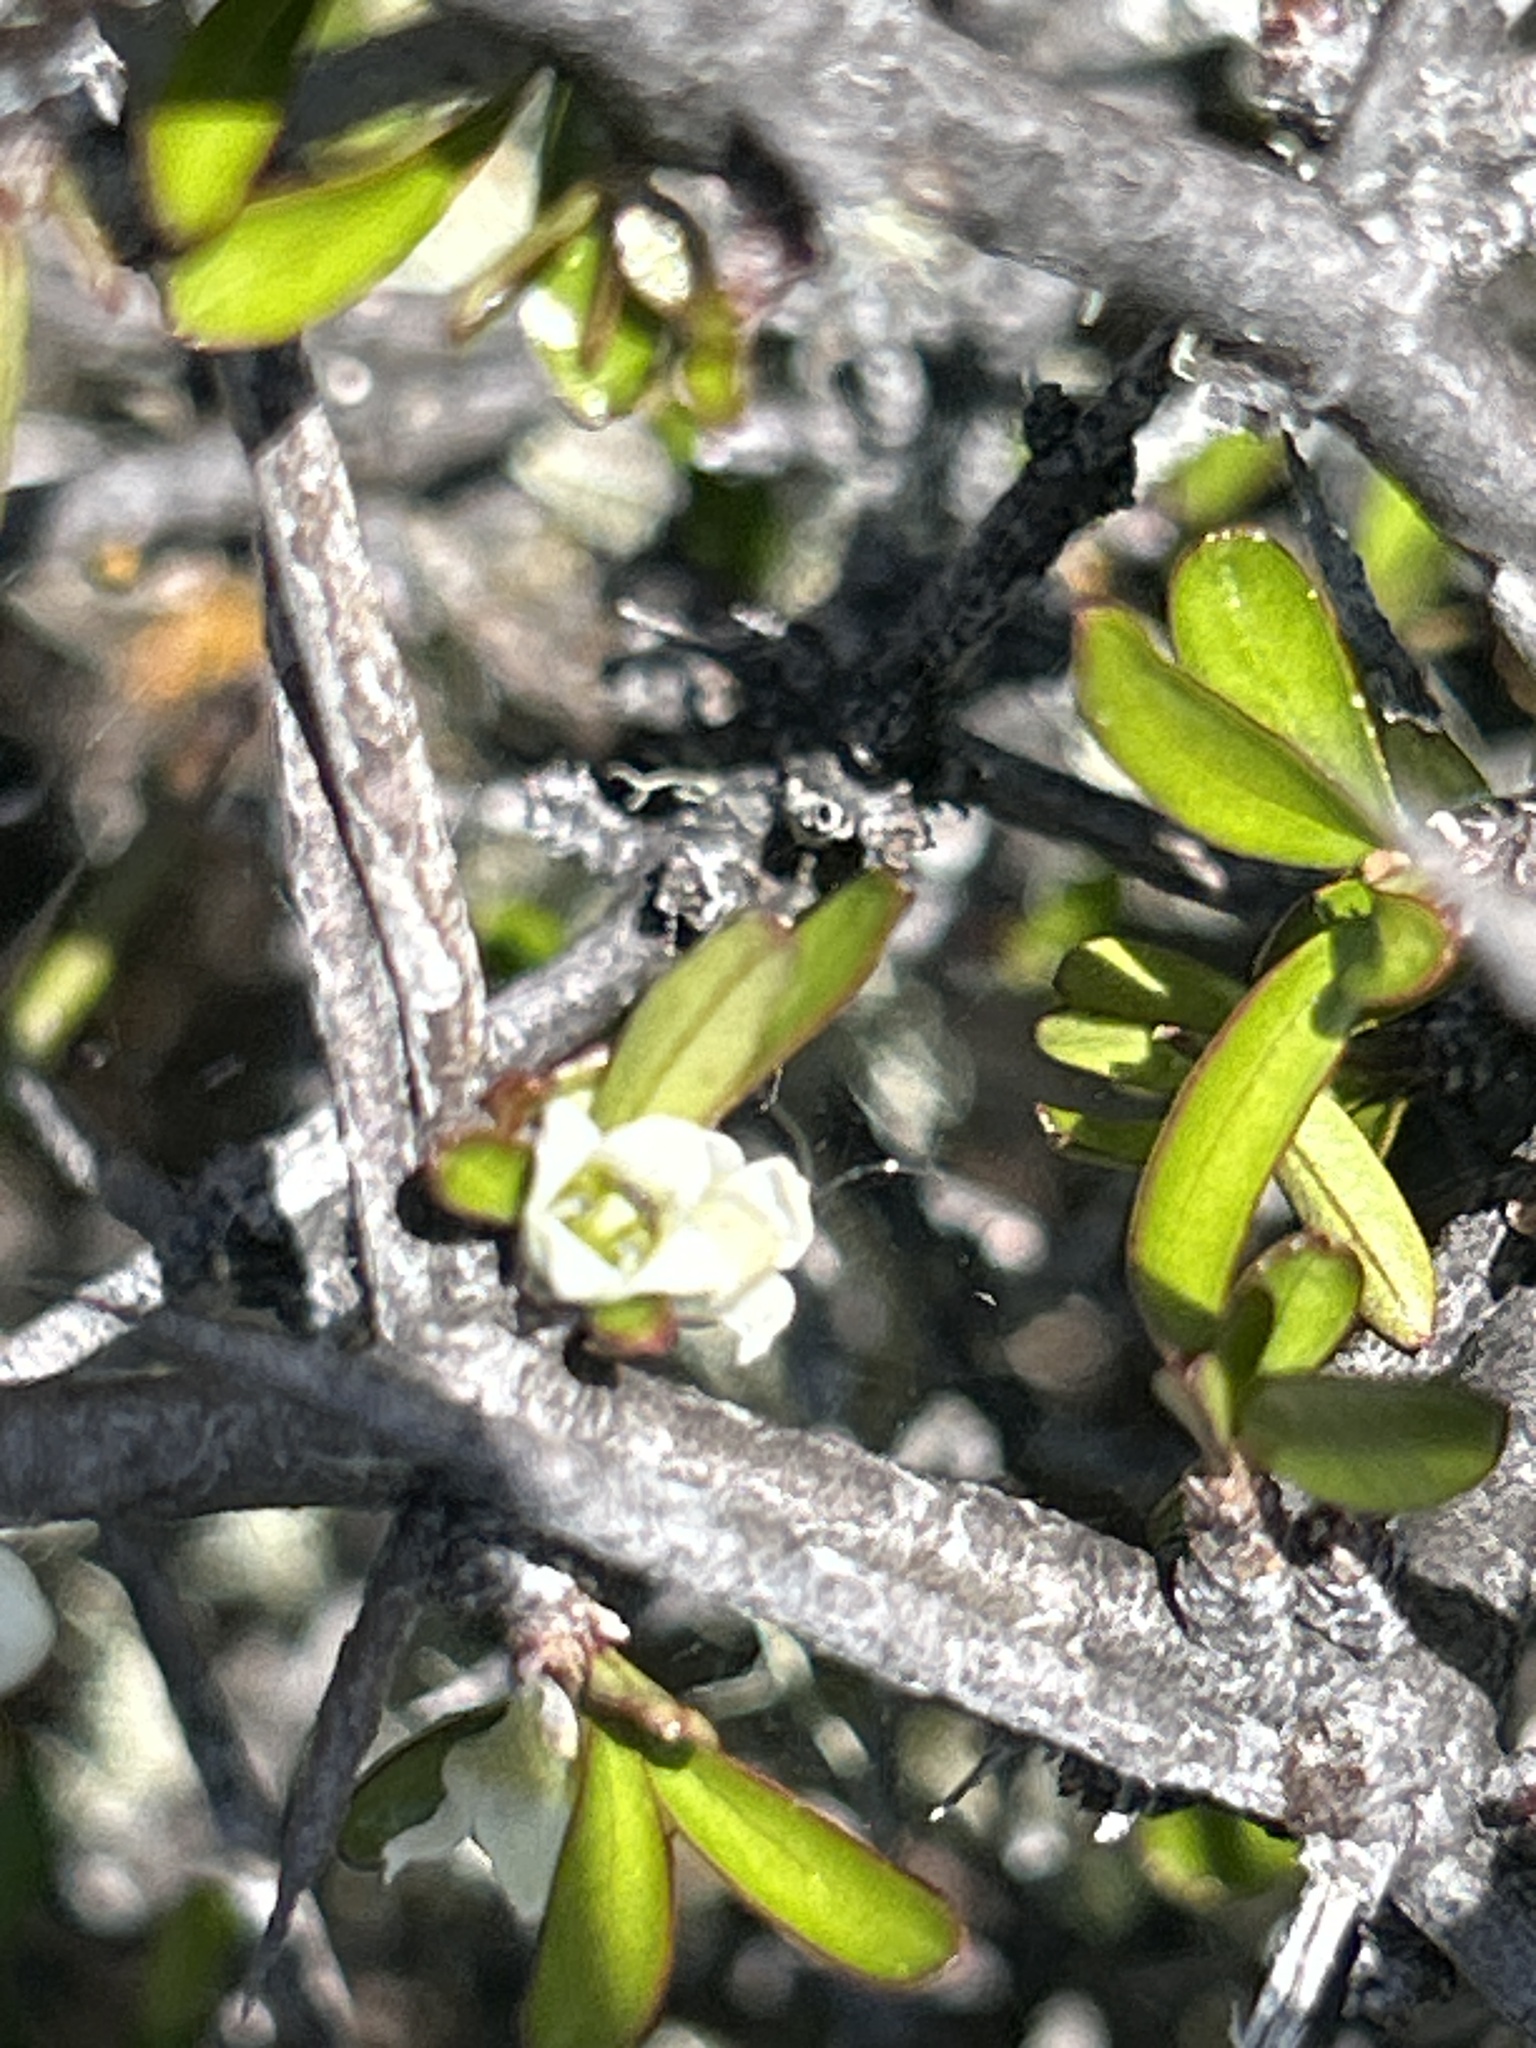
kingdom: Plantae
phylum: Tracheophyta
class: Magnoliopsida
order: Rosales
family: Rhamnaceae
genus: Discaria
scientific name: Discaria toumatou
